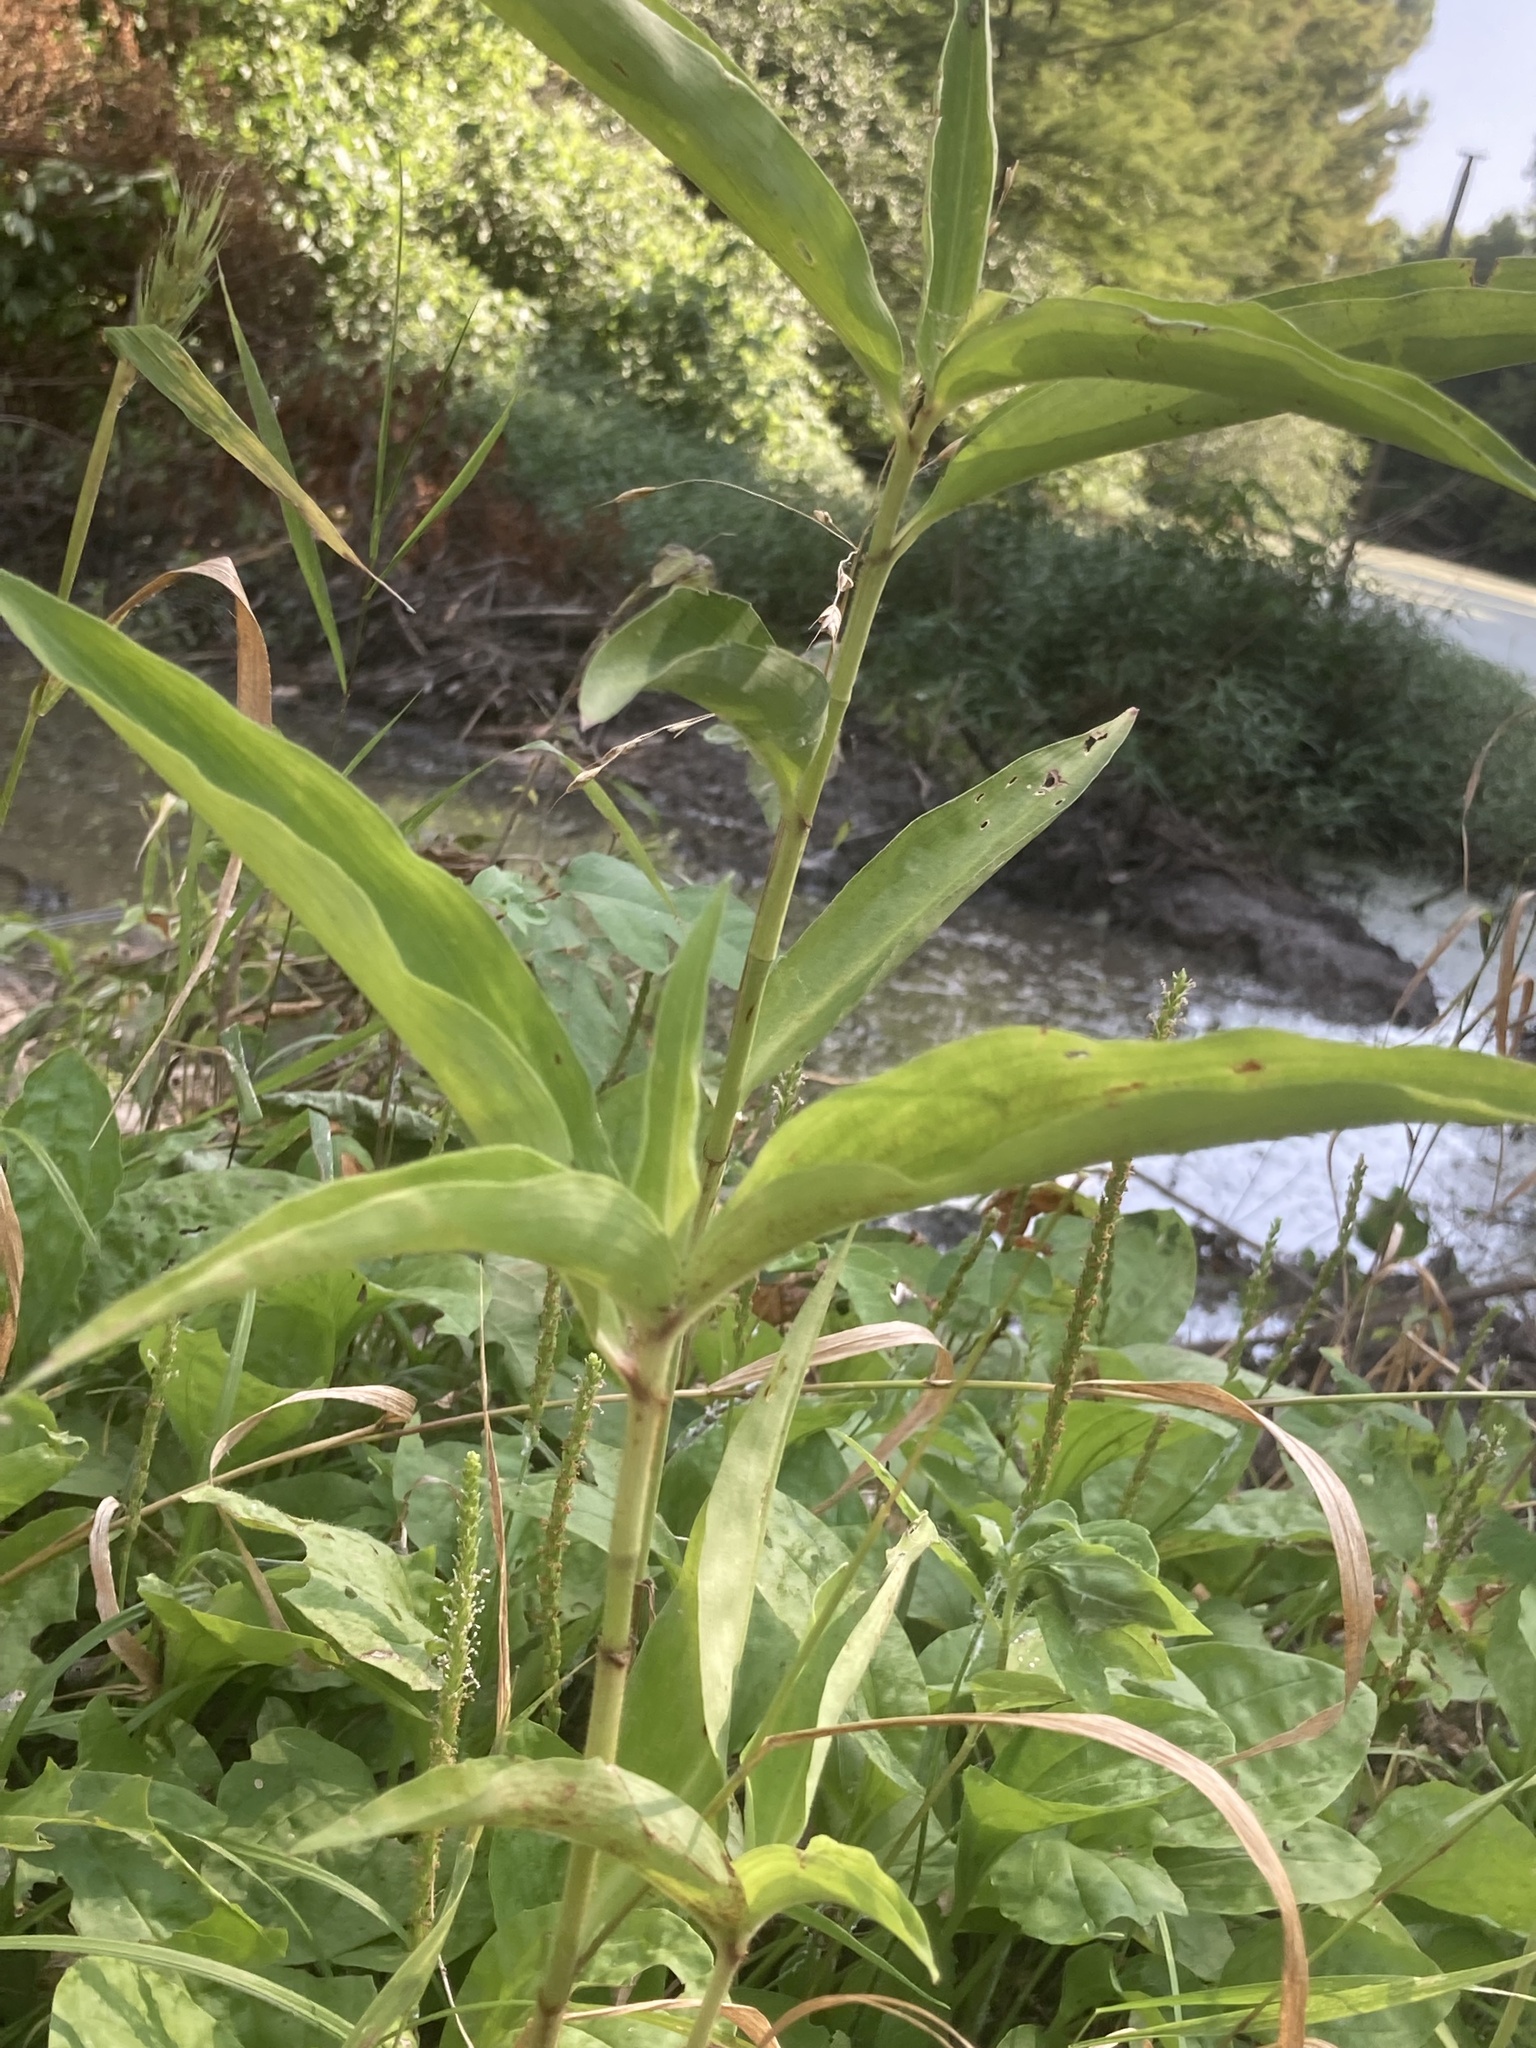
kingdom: Plantae
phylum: Tracheophyta
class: Liliopsida
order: Commelinales
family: Commelinaceae
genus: Commelina
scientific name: Commelina virginica
